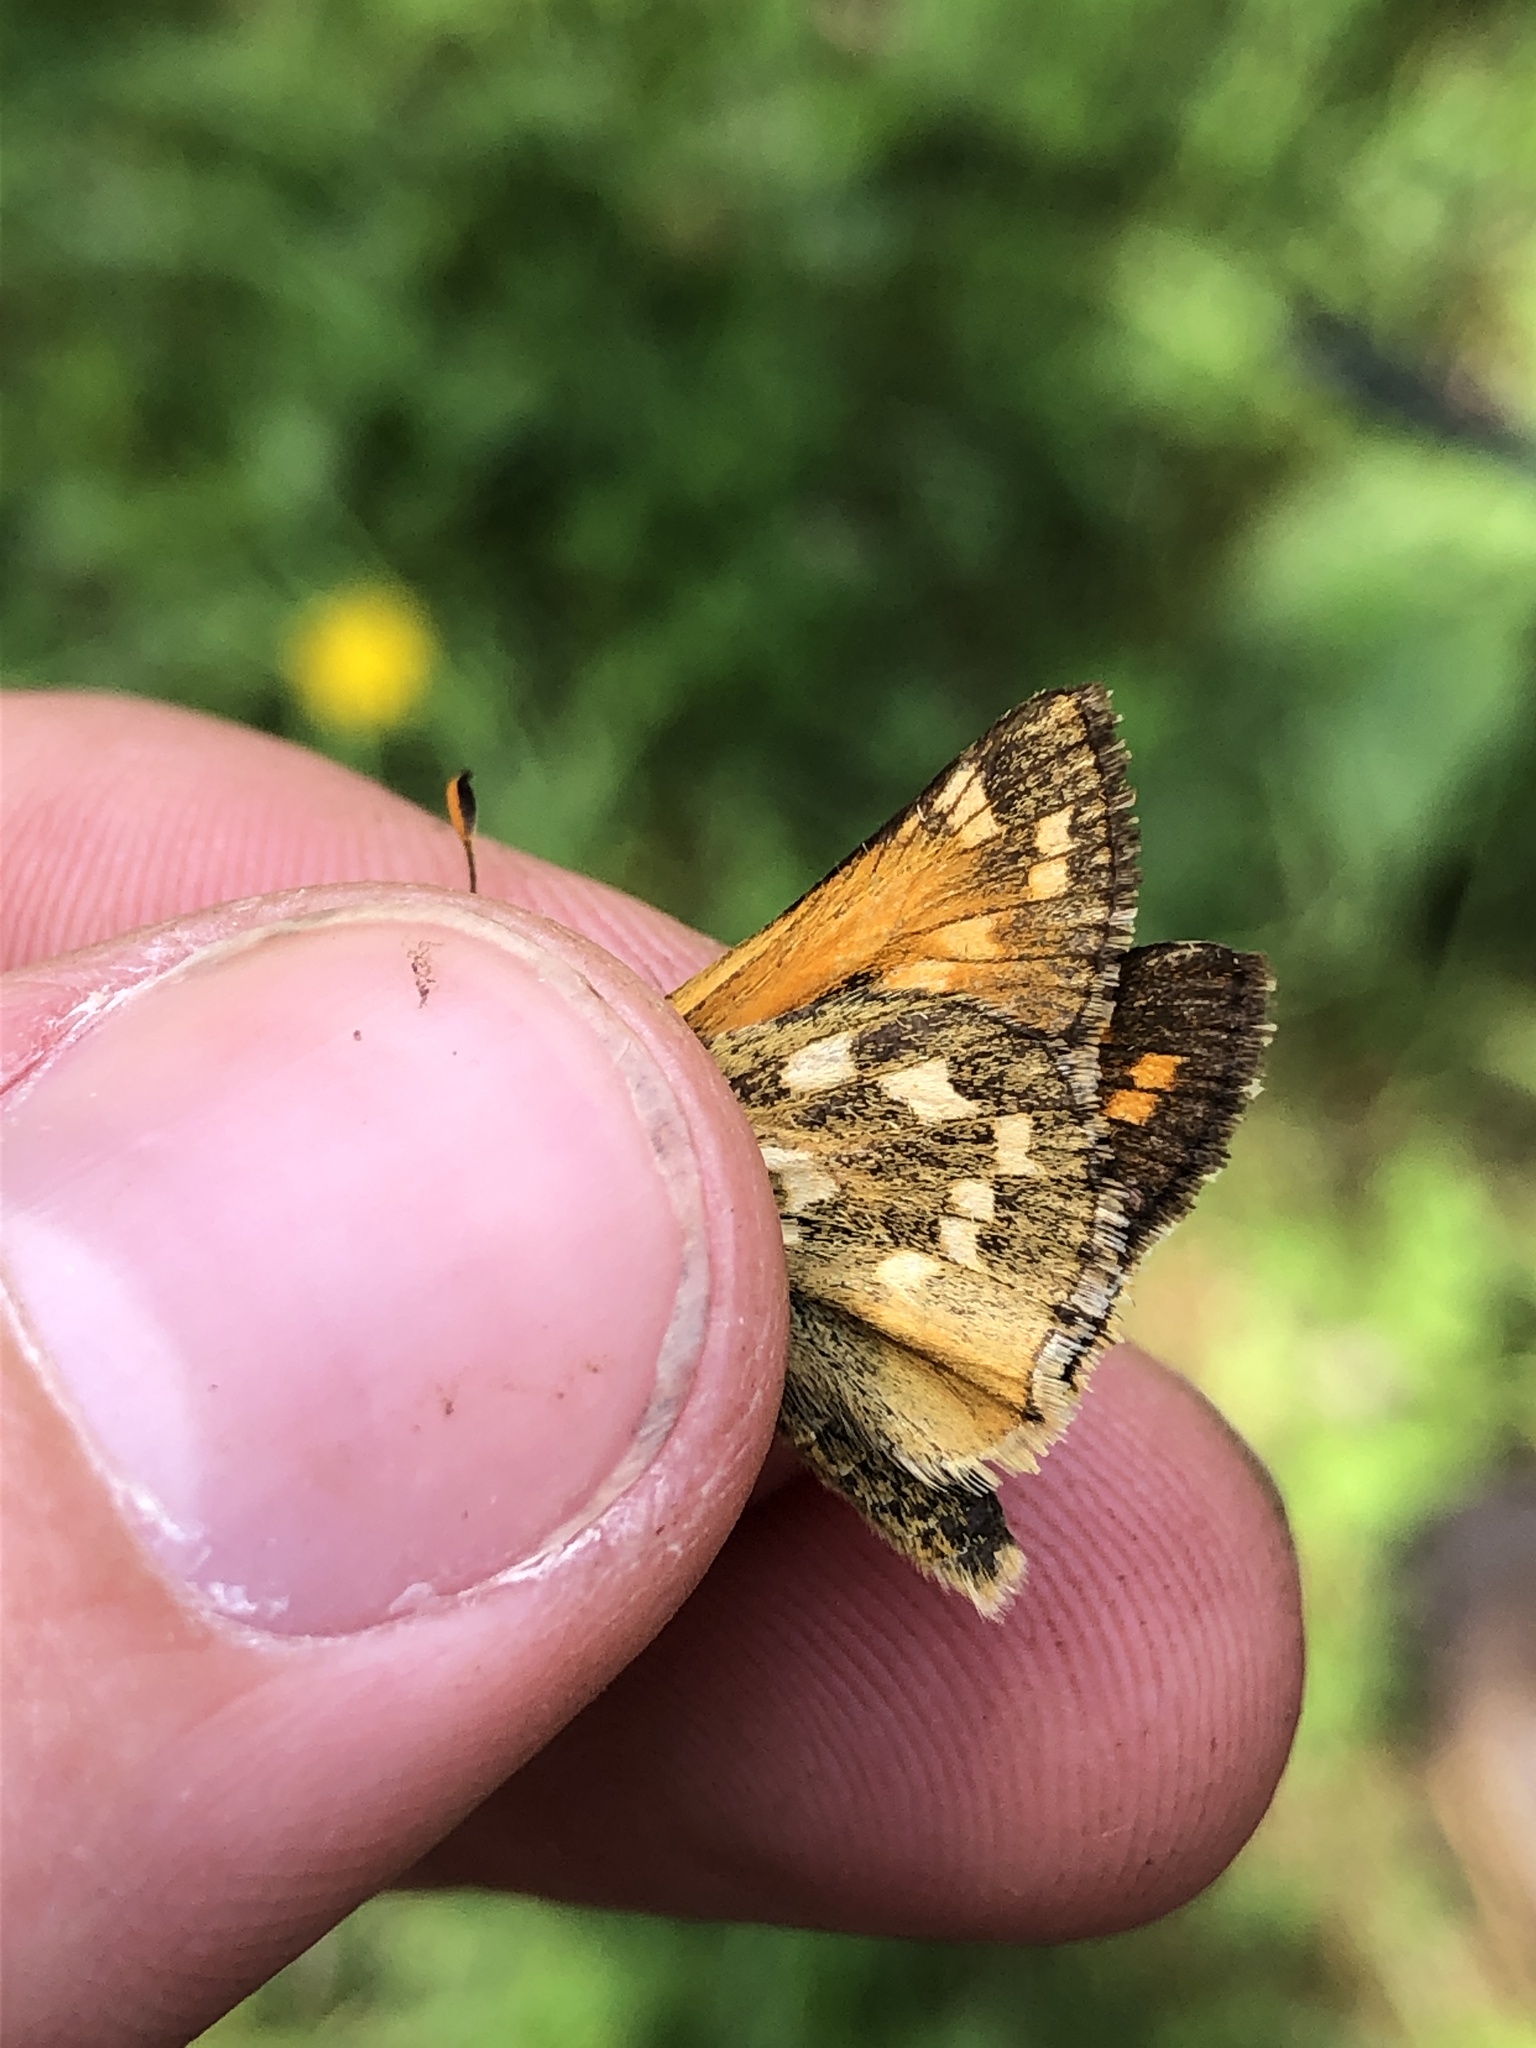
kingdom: Animalia
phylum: Arthropoda
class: Insecta
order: Lepidoptera
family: Hesperiidae
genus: Hesperia
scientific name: Hesperia comma
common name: Common branded skipper
